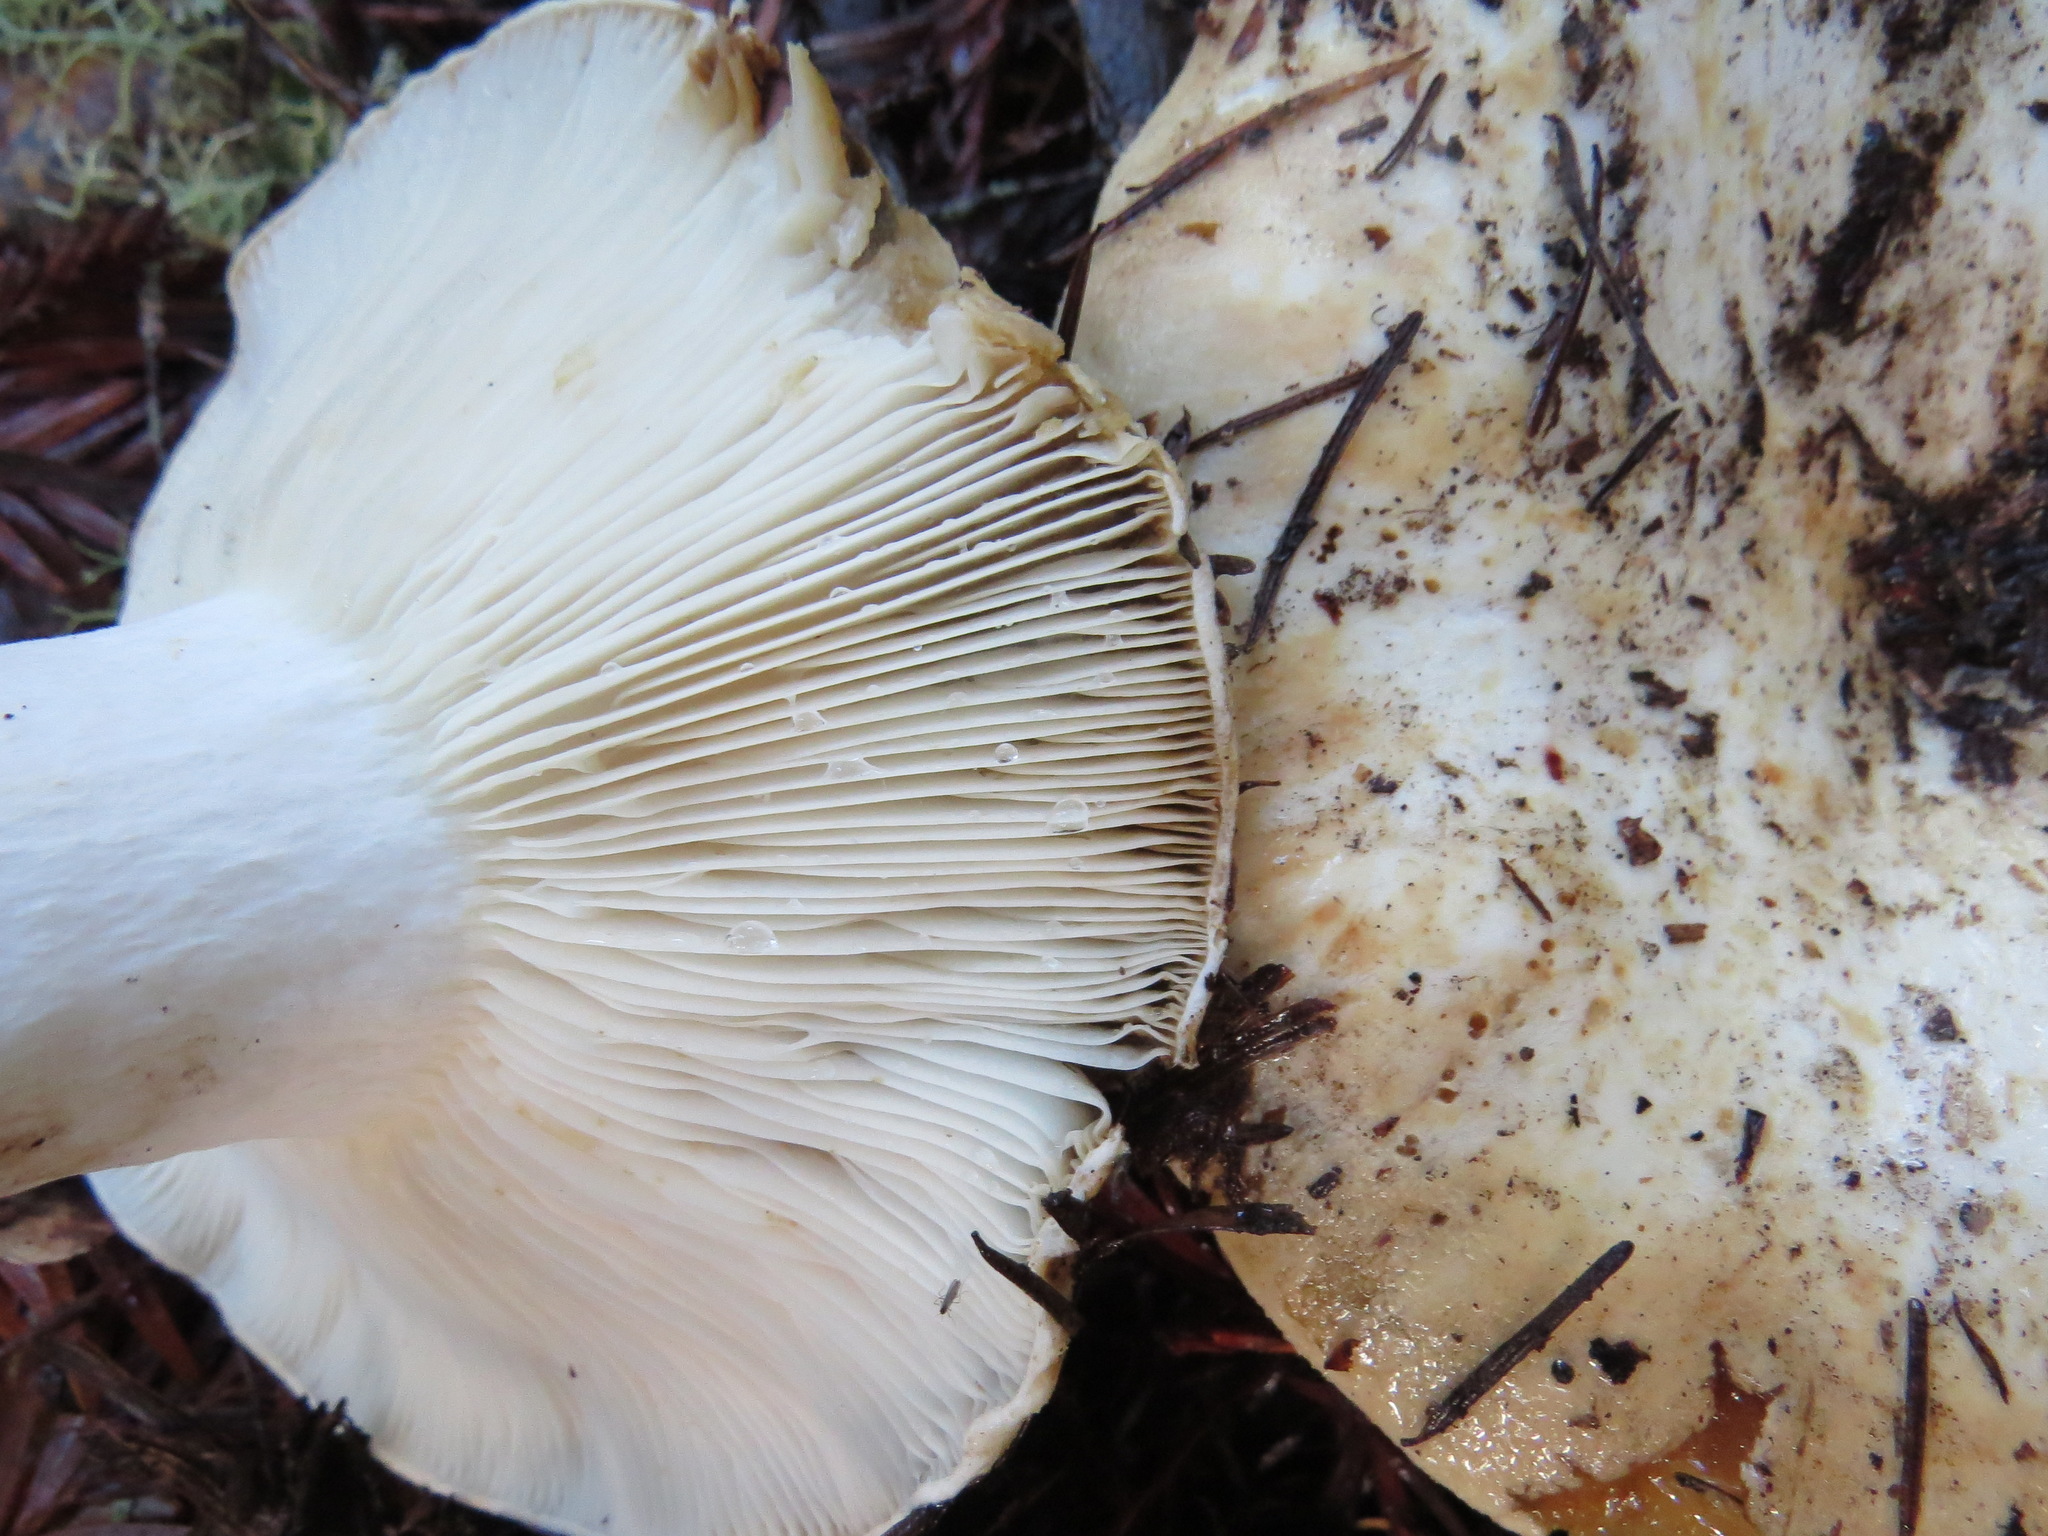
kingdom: Fungi
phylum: Basidiomycota
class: Agaricomycetes
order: Russulales
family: Russulaceae
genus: Russula
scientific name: Russula brevipes
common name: Short-stemmed russula
